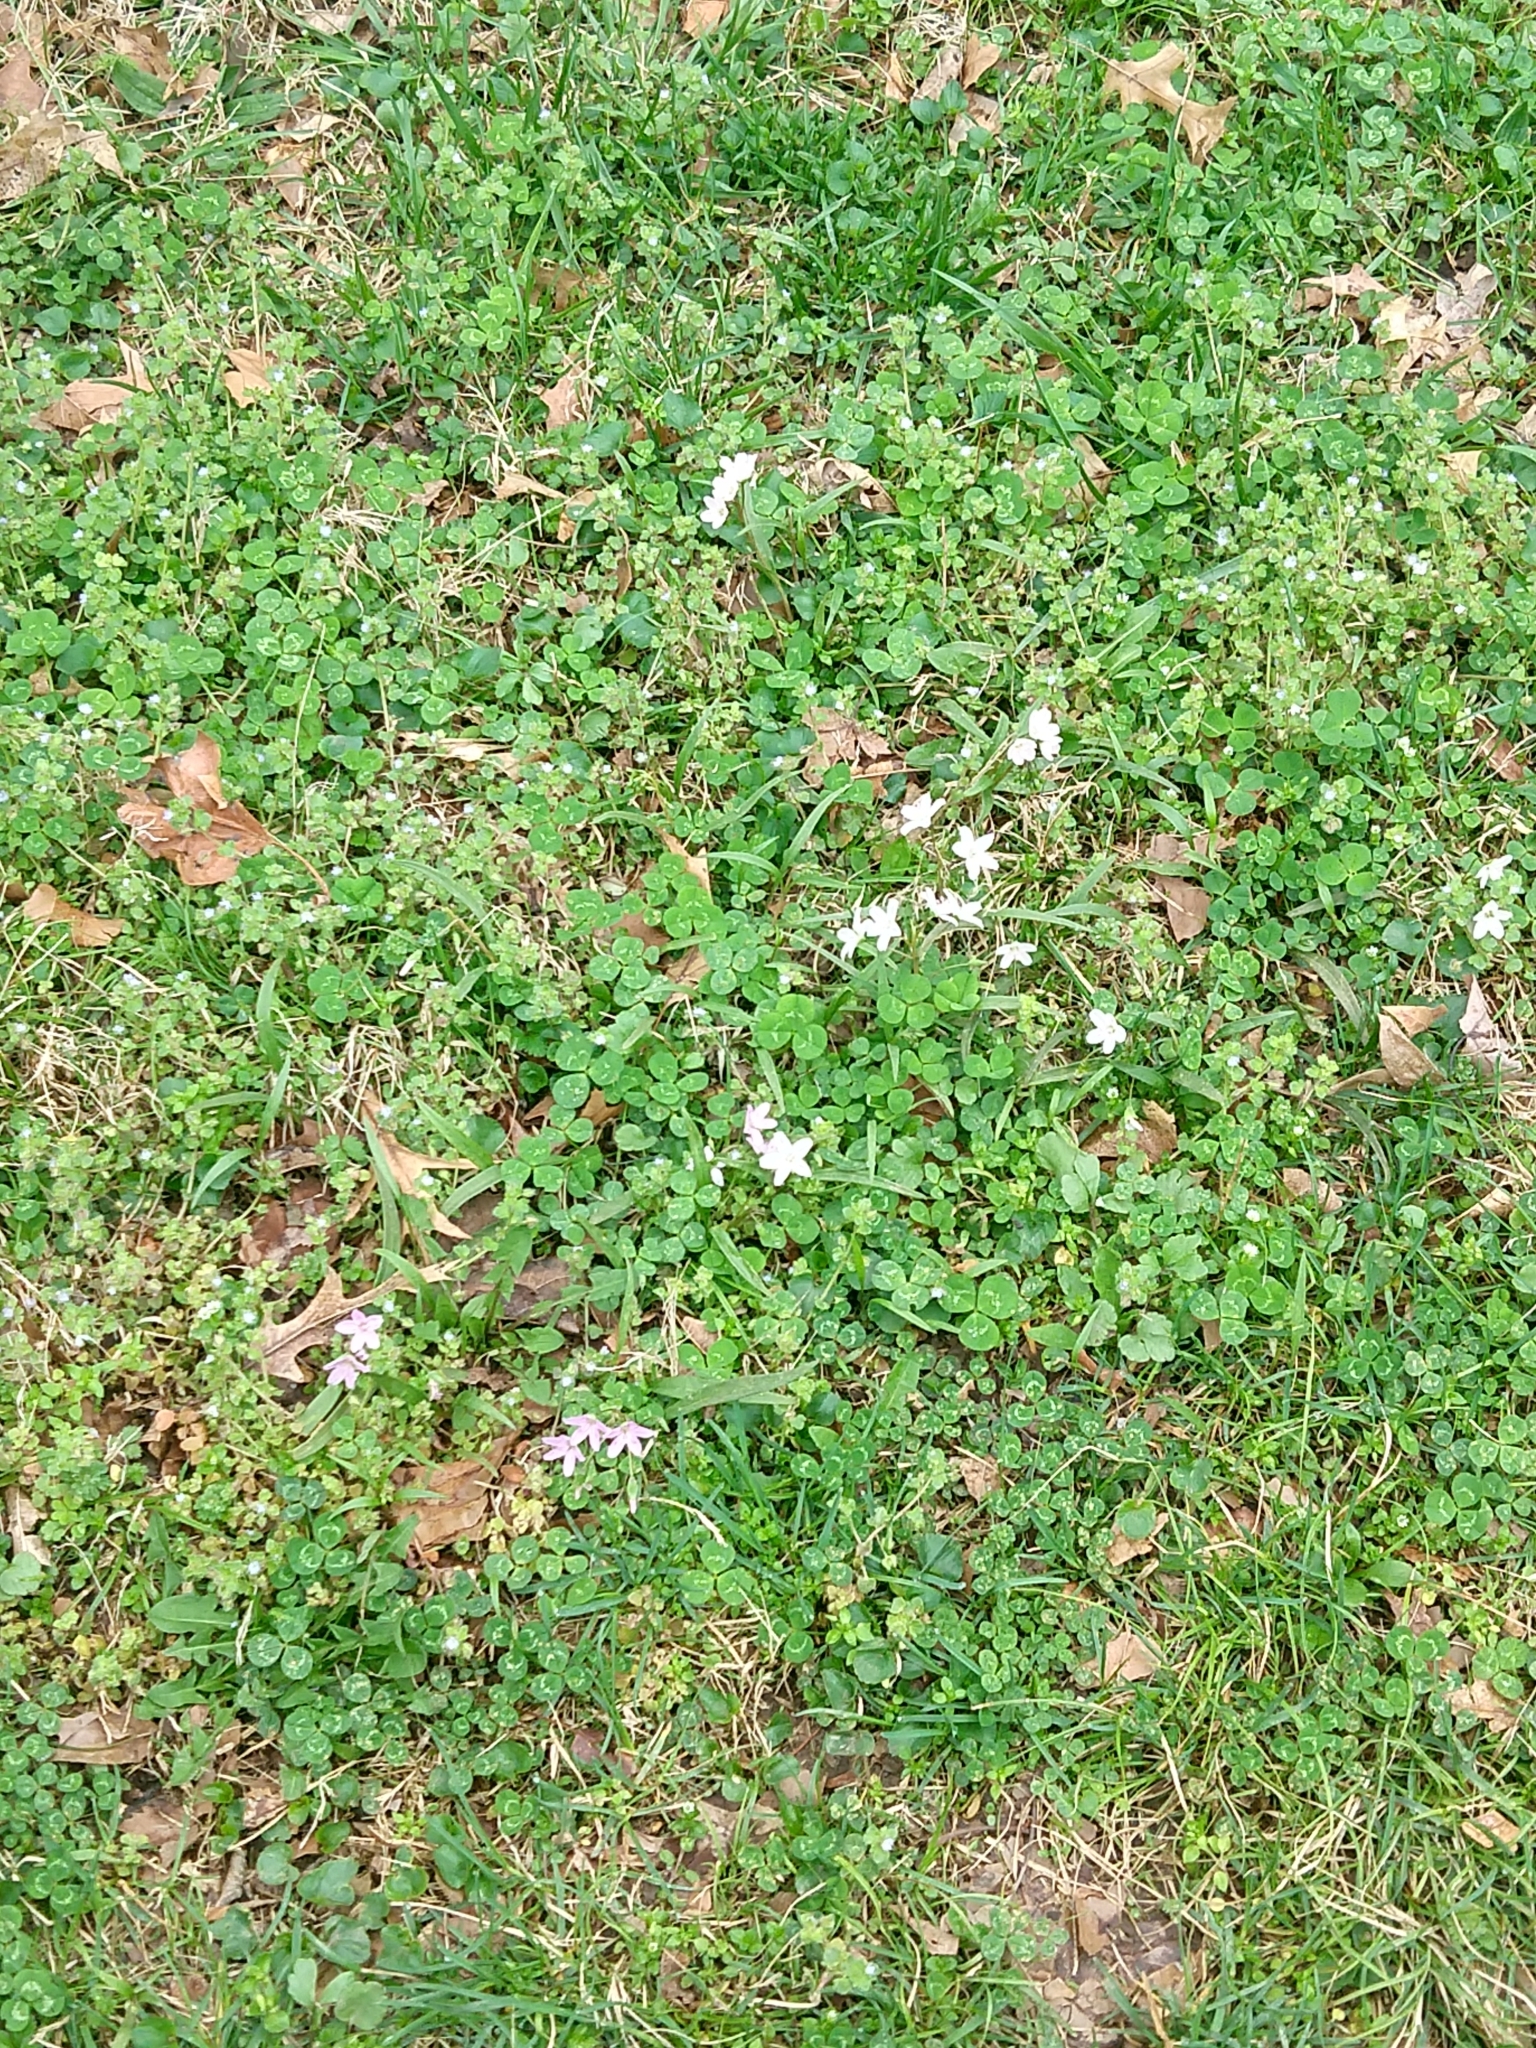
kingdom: Plantae
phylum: Tracheophyta
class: Magnoliopsida
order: Caryophyllales
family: Montiaceae
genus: Claytonia
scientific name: Claytonia virginica
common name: Virginia springbeauty
